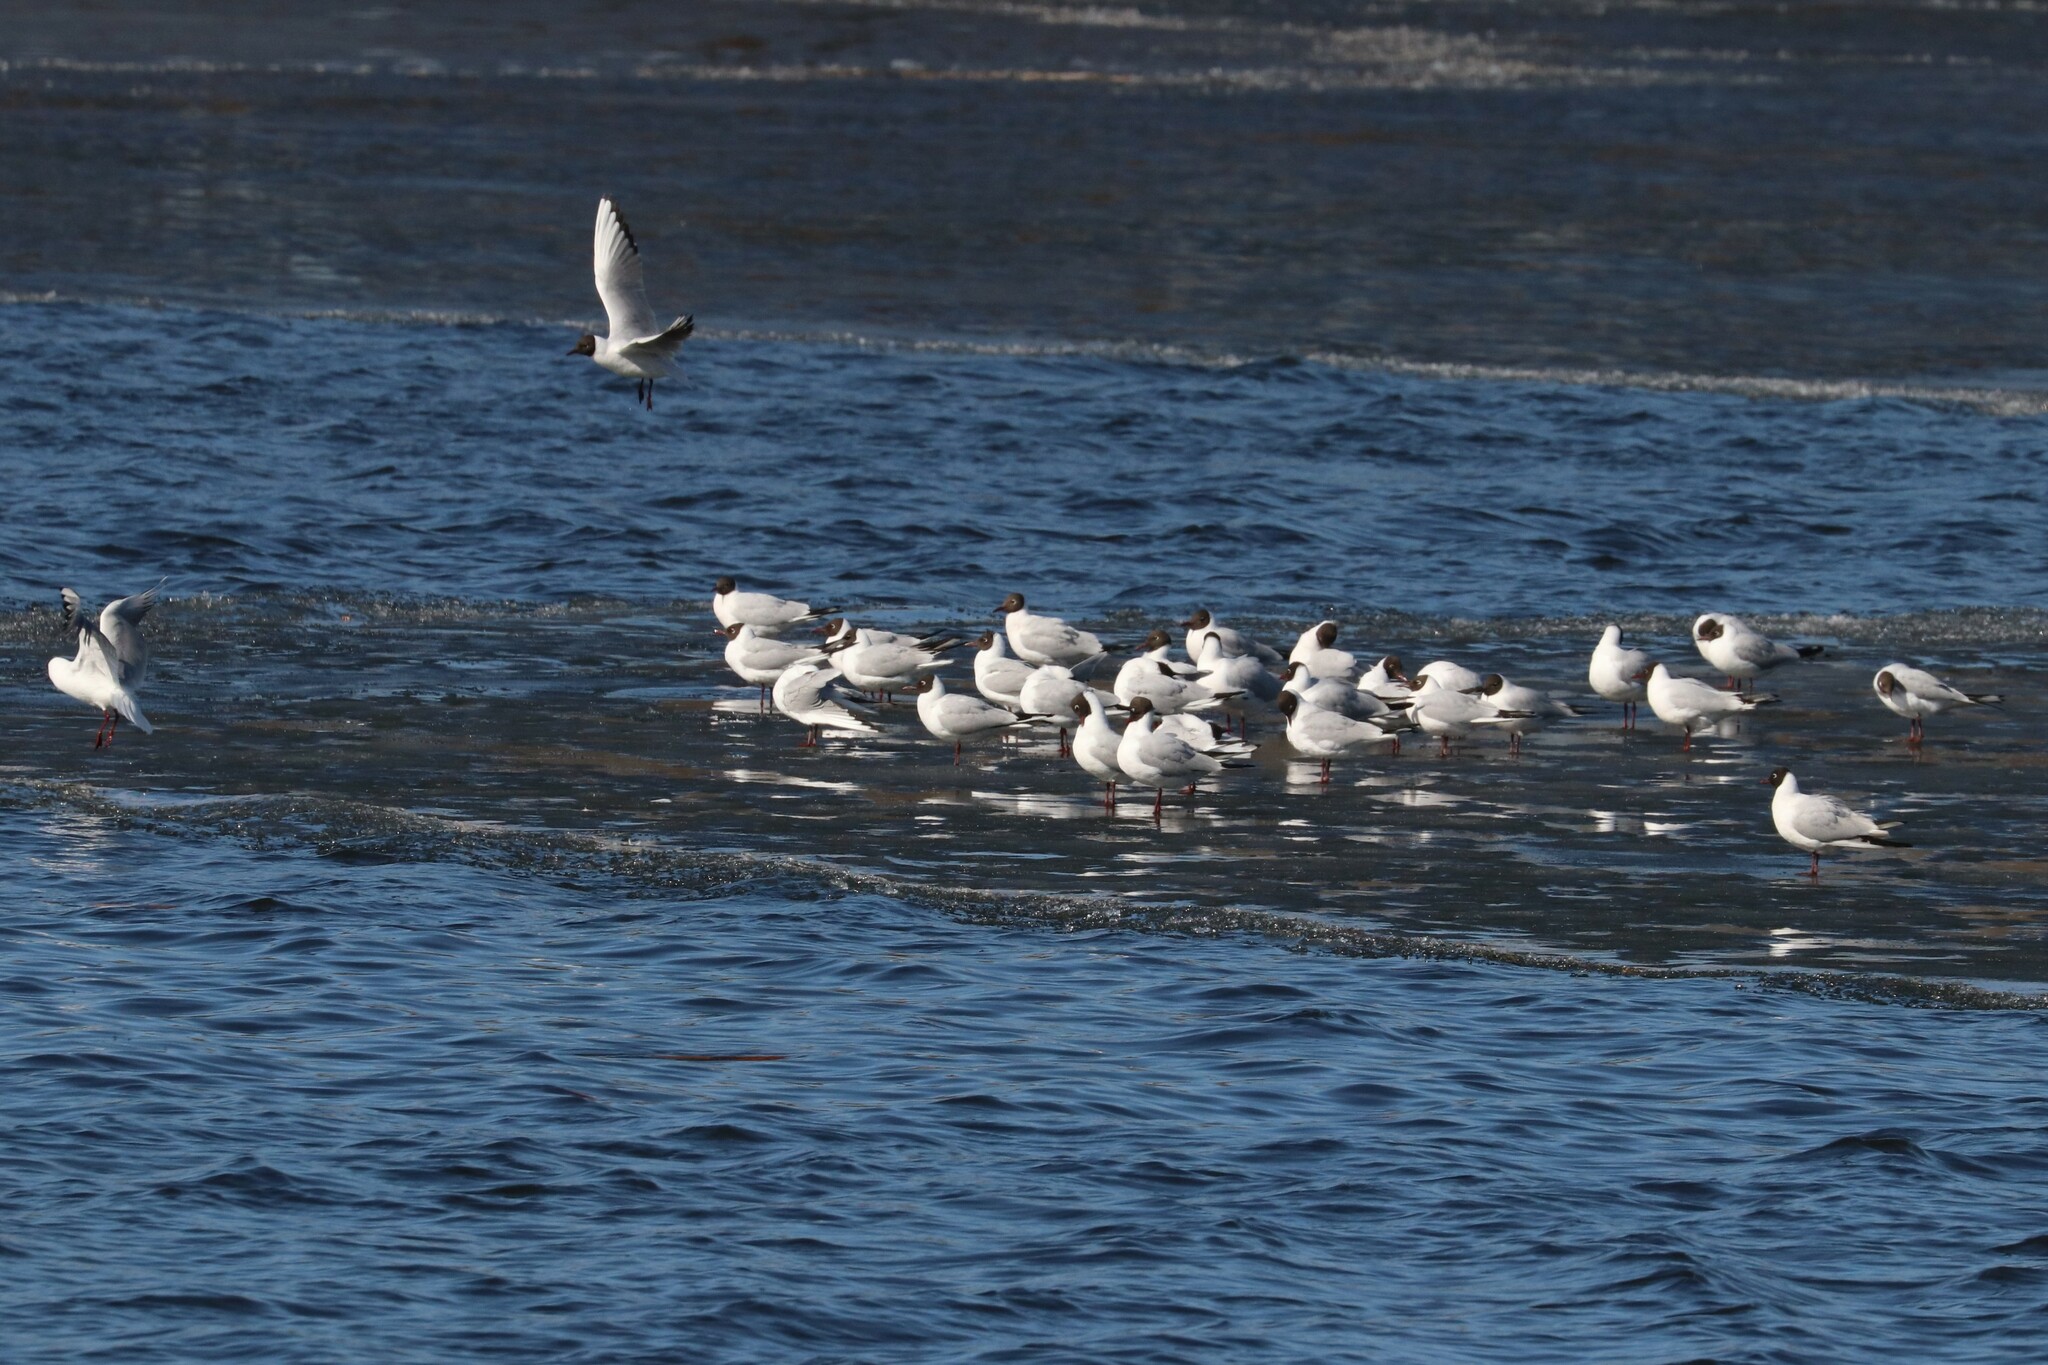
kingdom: Animalia
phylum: Chordata
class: Aves
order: Charadriiformes
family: Laridae
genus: Chroicocephalus
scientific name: Chroicocephalus ridibundus
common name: Black-headed gull
